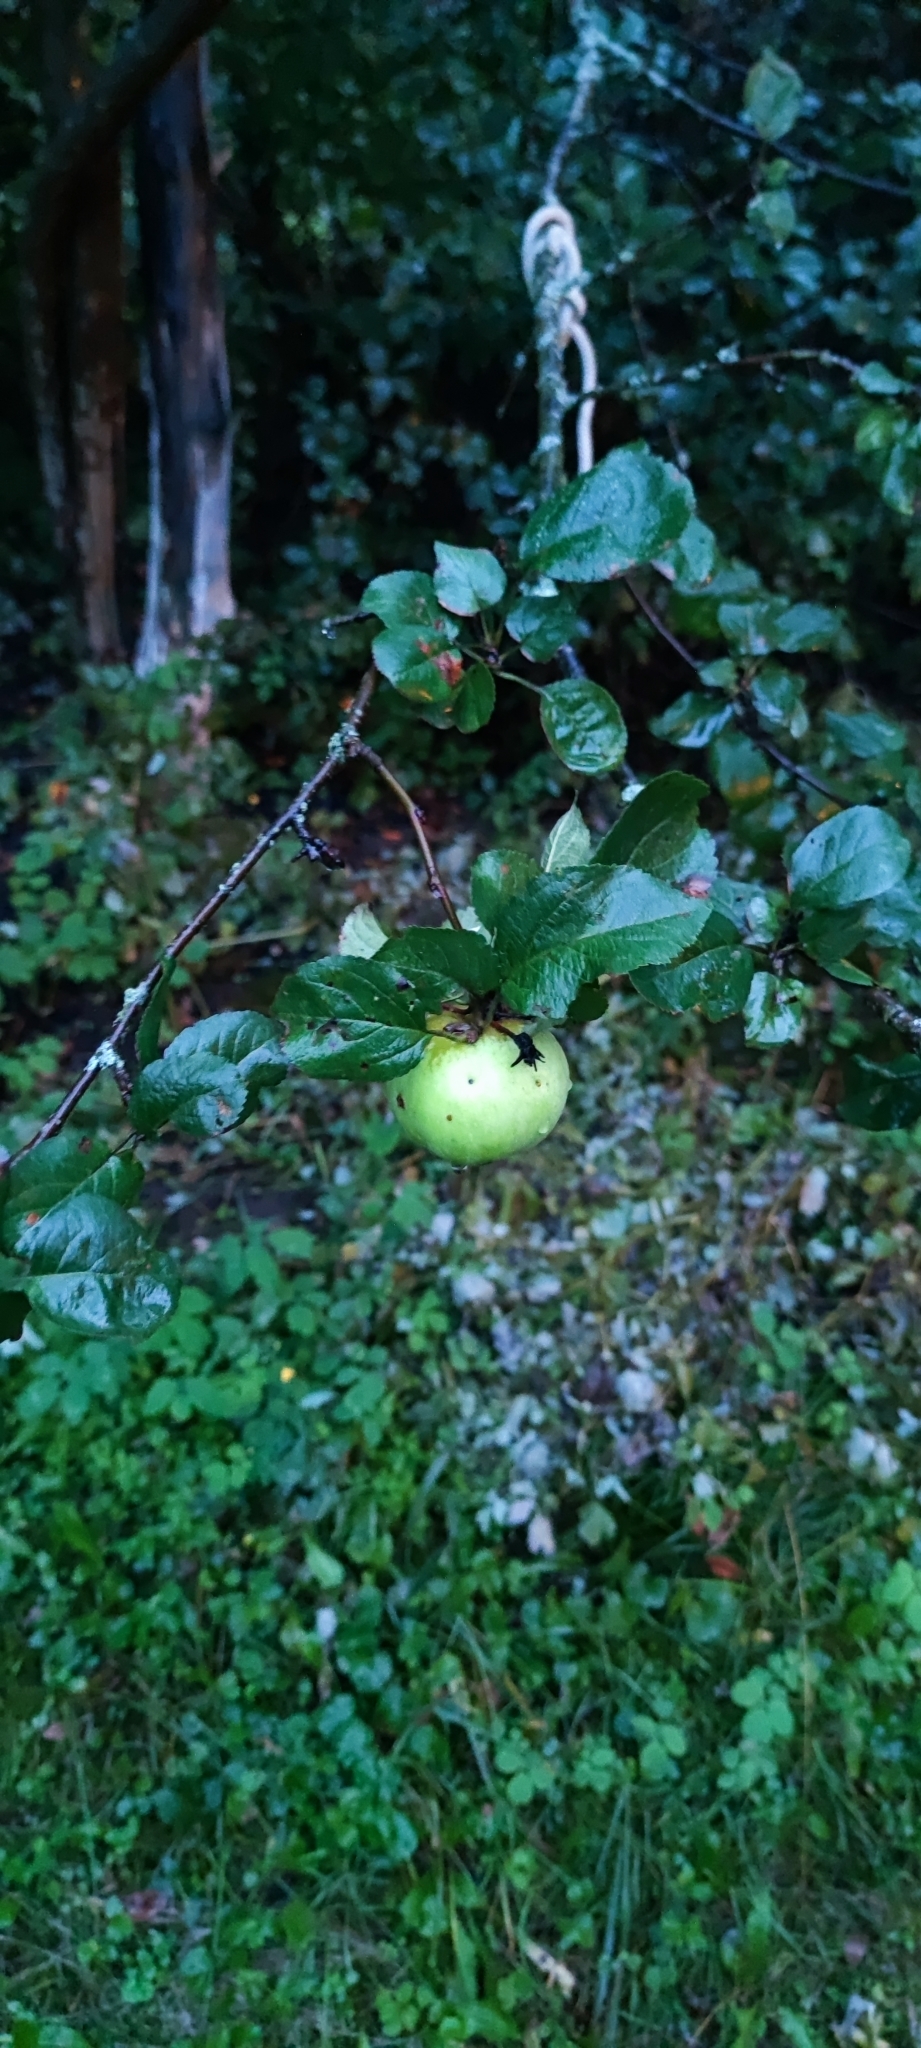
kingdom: Plantae
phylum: Tracheophyta
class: Magnoliopsida
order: Rosales
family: Rosaceae
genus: Malus
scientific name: Malus domestica
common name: Apple
